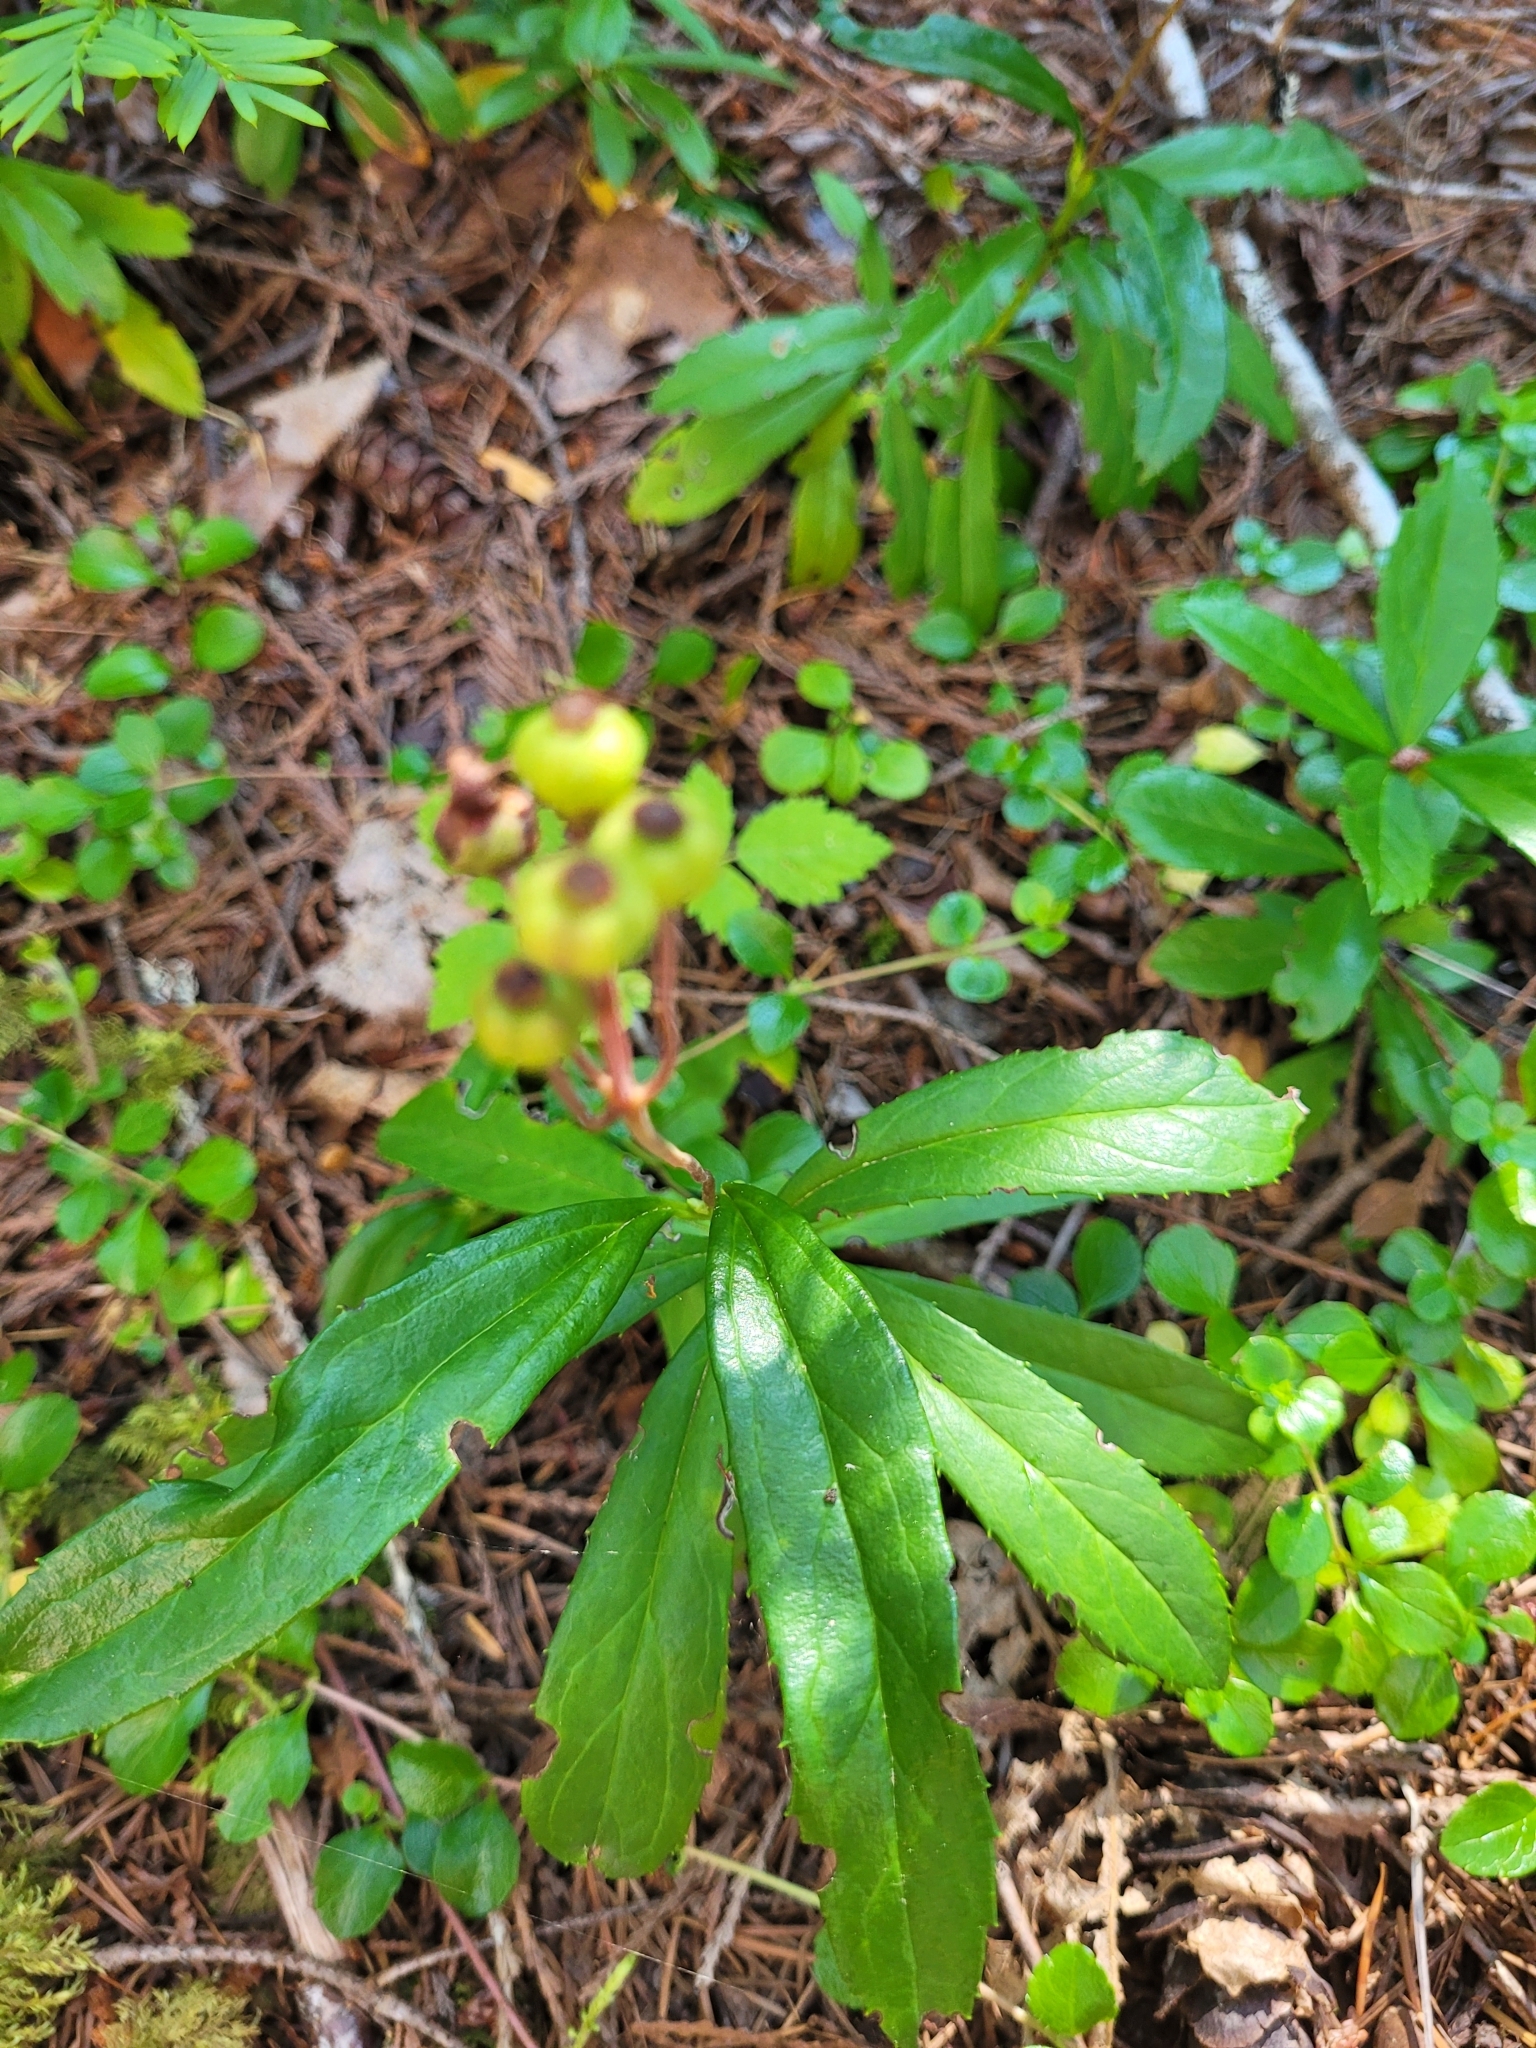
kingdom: Plantae
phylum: Tracheophyta
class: Magnoliopsida
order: Ericales
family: Ericaceae
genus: Chimaphila
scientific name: Chimaphila umbellata
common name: Pipsissewa
